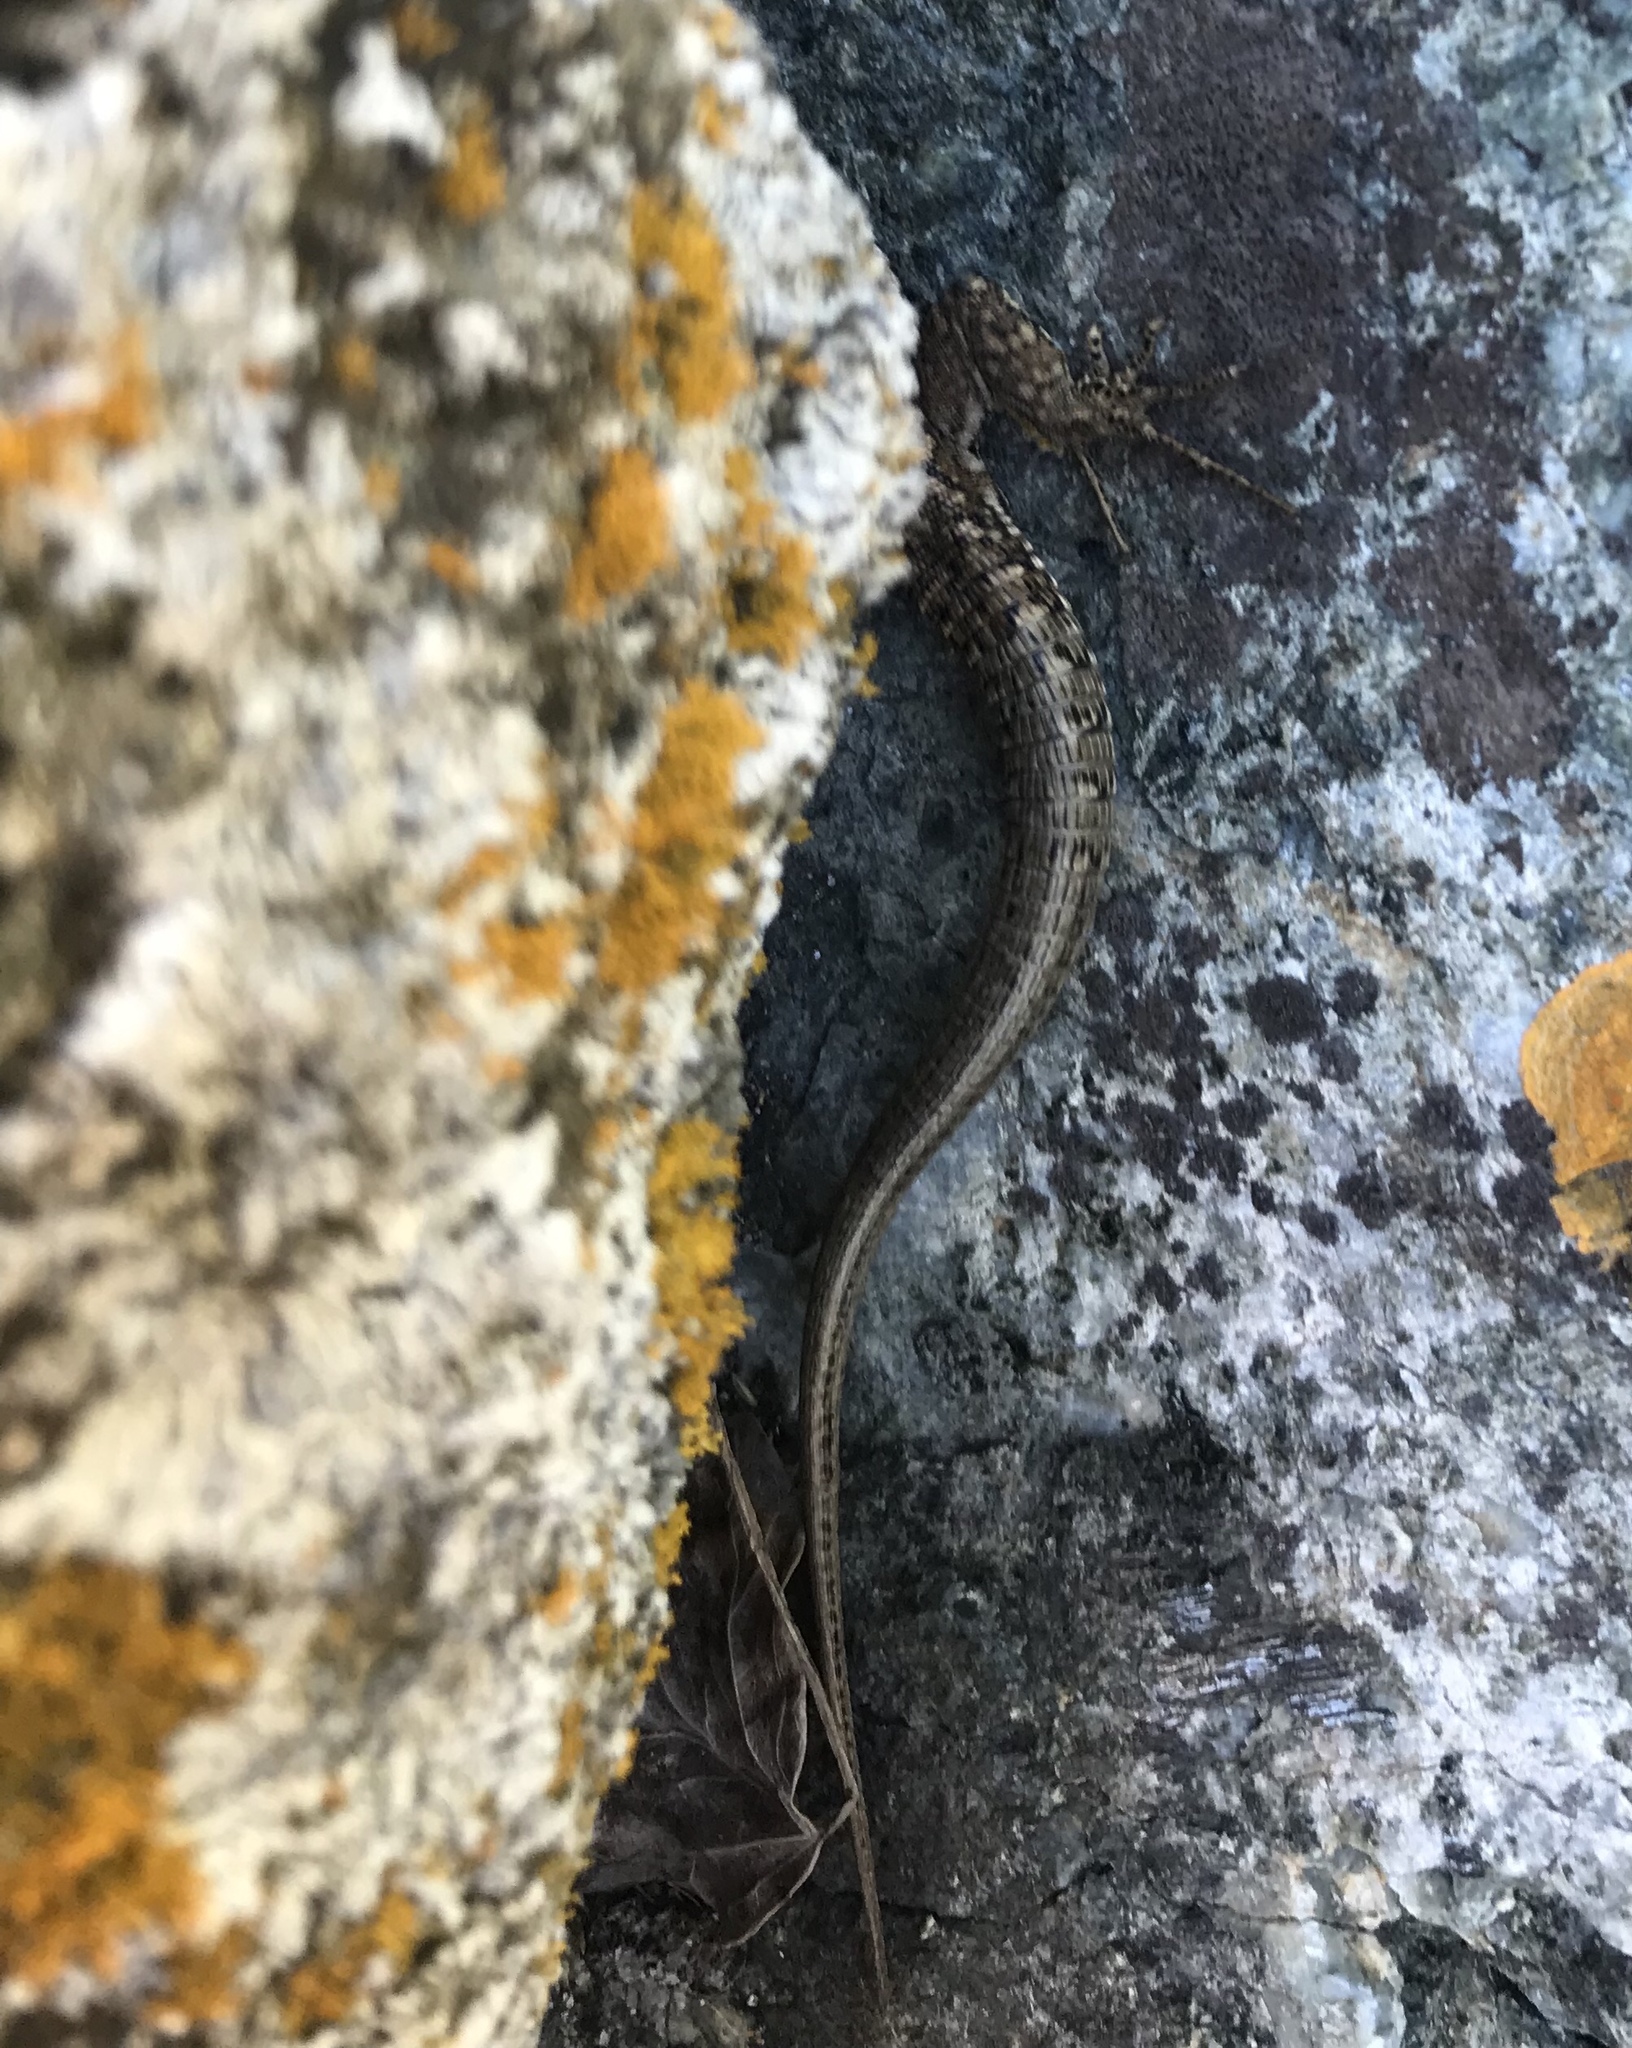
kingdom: Animalia
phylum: Chordata
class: Squamata
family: Lacertidae
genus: Podarcis
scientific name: Podarcis muralis
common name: Common wall lizard
